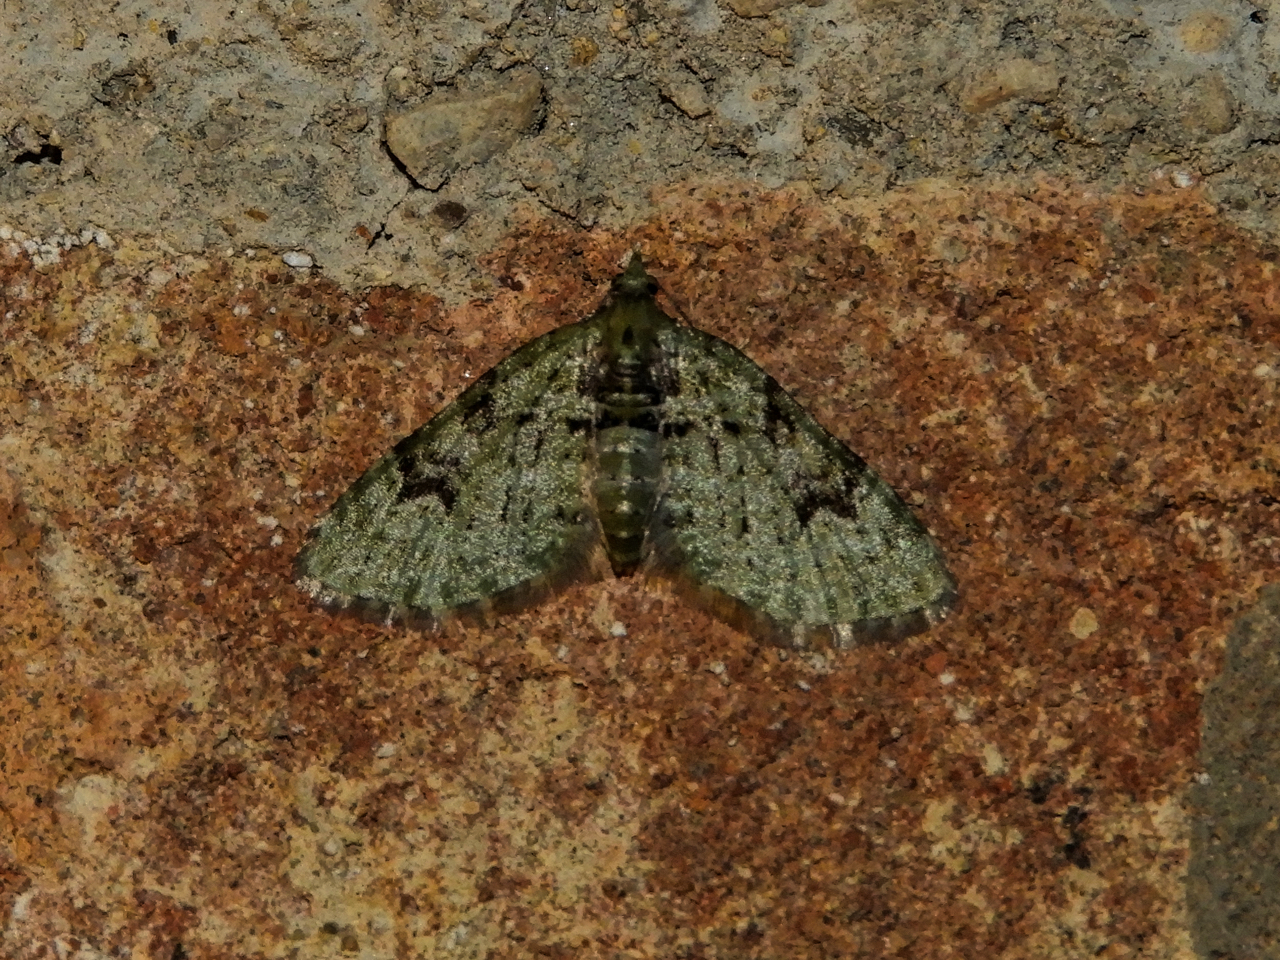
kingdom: Animalia
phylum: Arthropoda
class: Insecta
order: Lepidoptera
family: Geometridae
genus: Chloroclystis
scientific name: Chloroclystis v-ata
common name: V-pug
